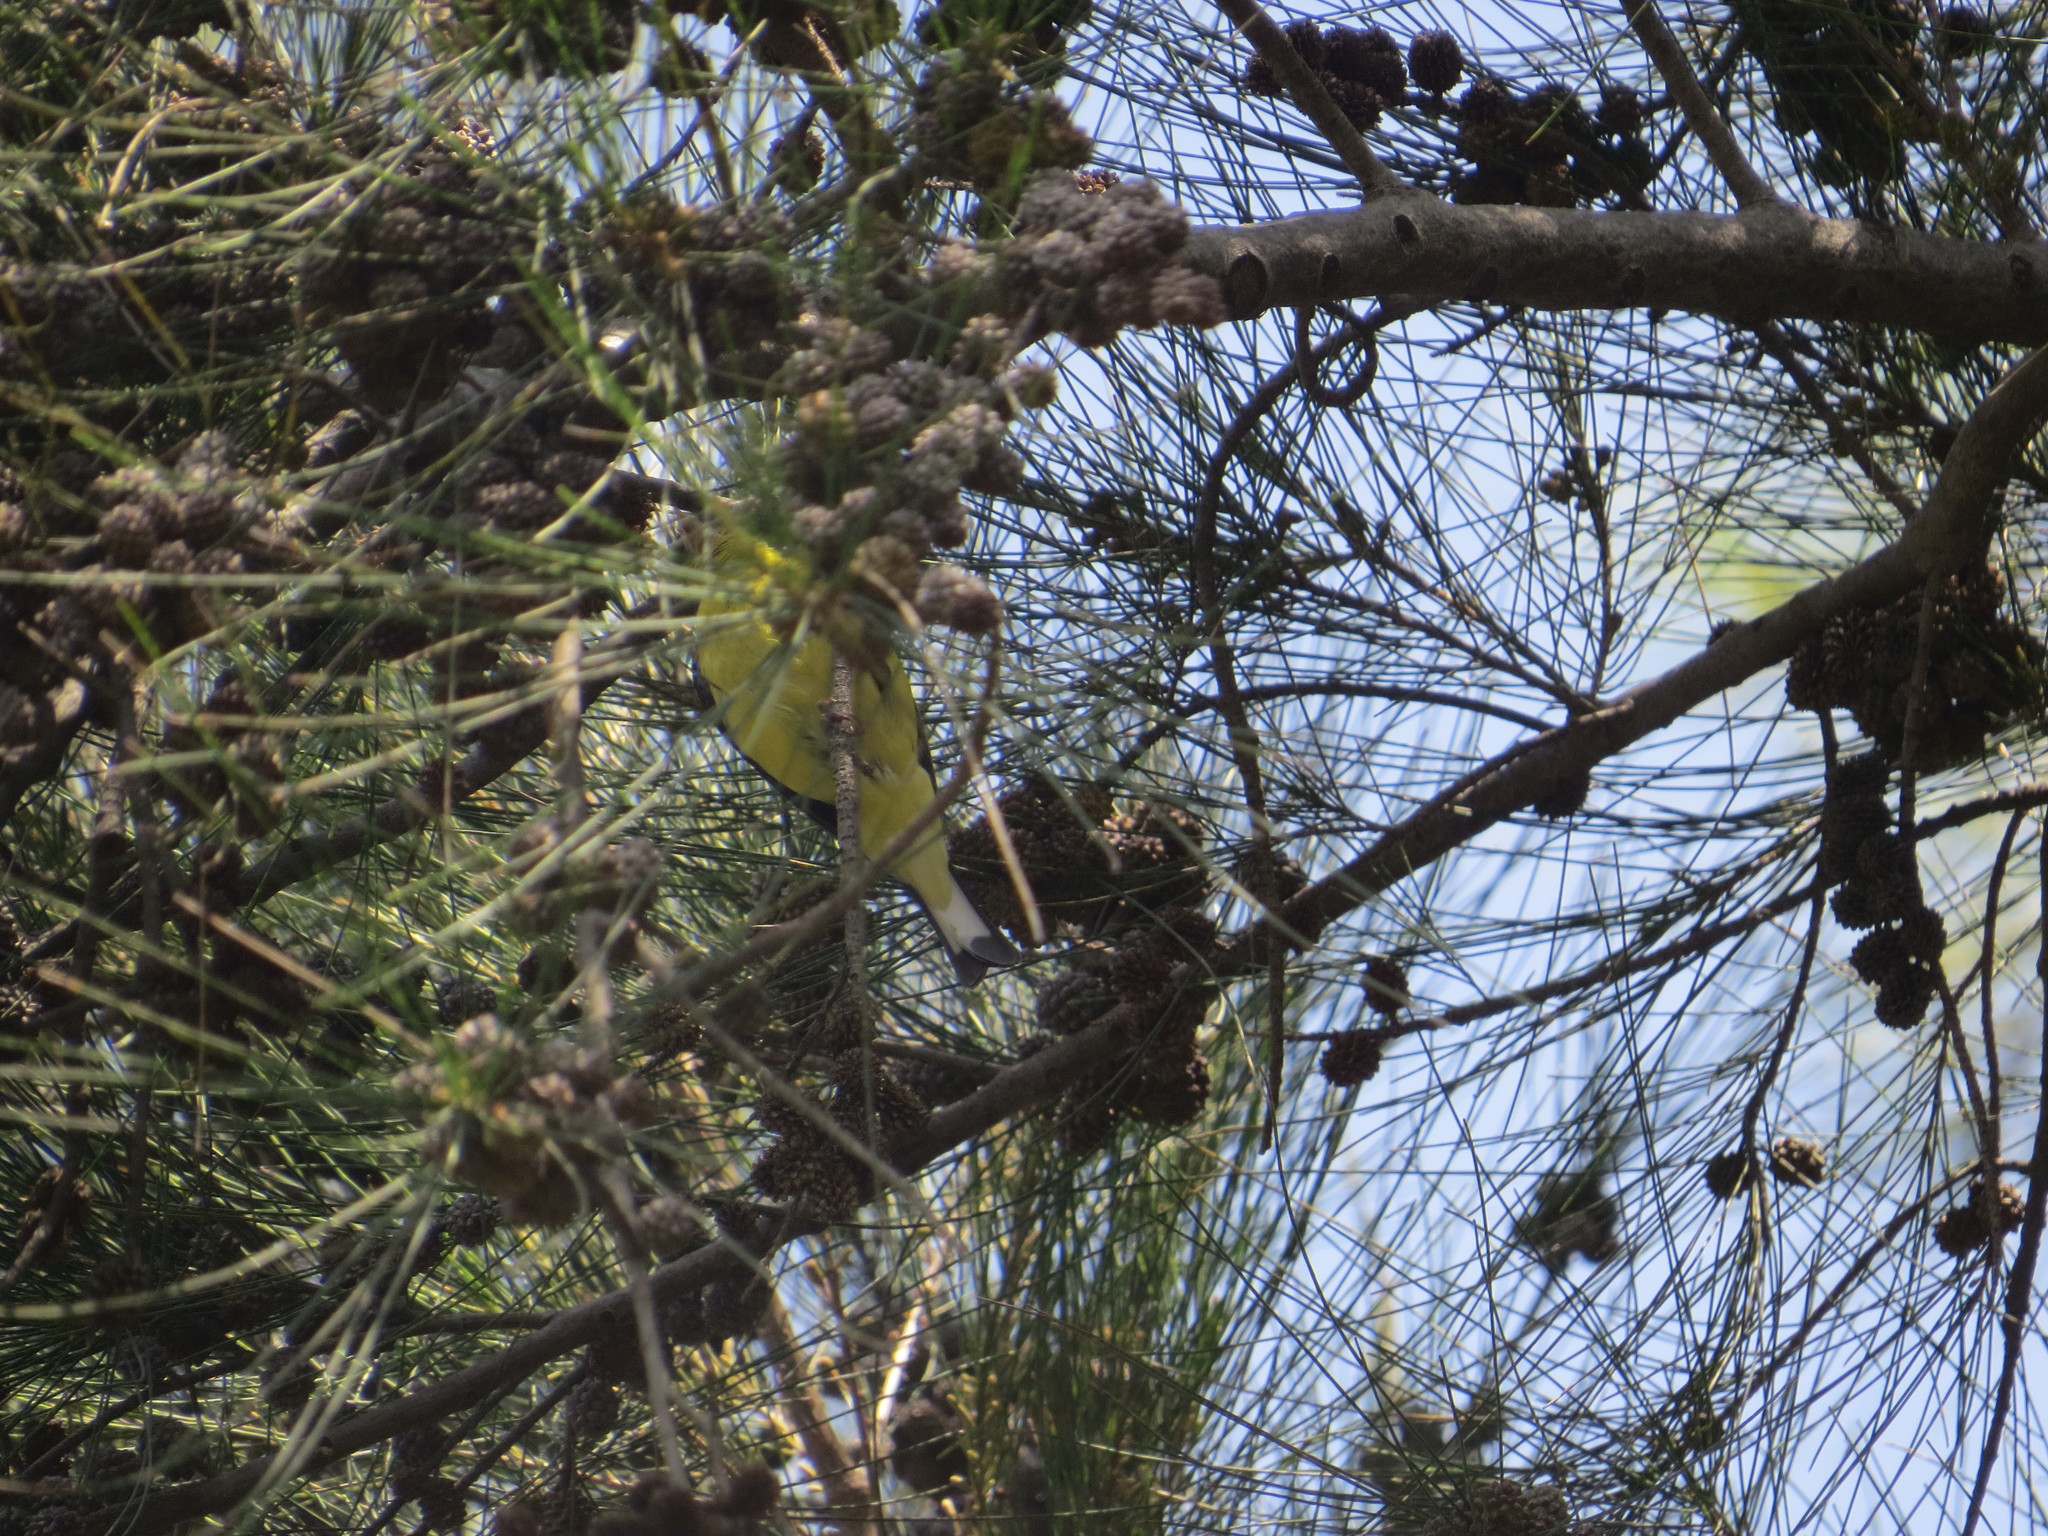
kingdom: Animalia
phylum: Chordata
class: Aves
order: Passeriformes
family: Fringillidae
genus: Spinus
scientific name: Spinus psaltria
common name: Lesser goldfinch
